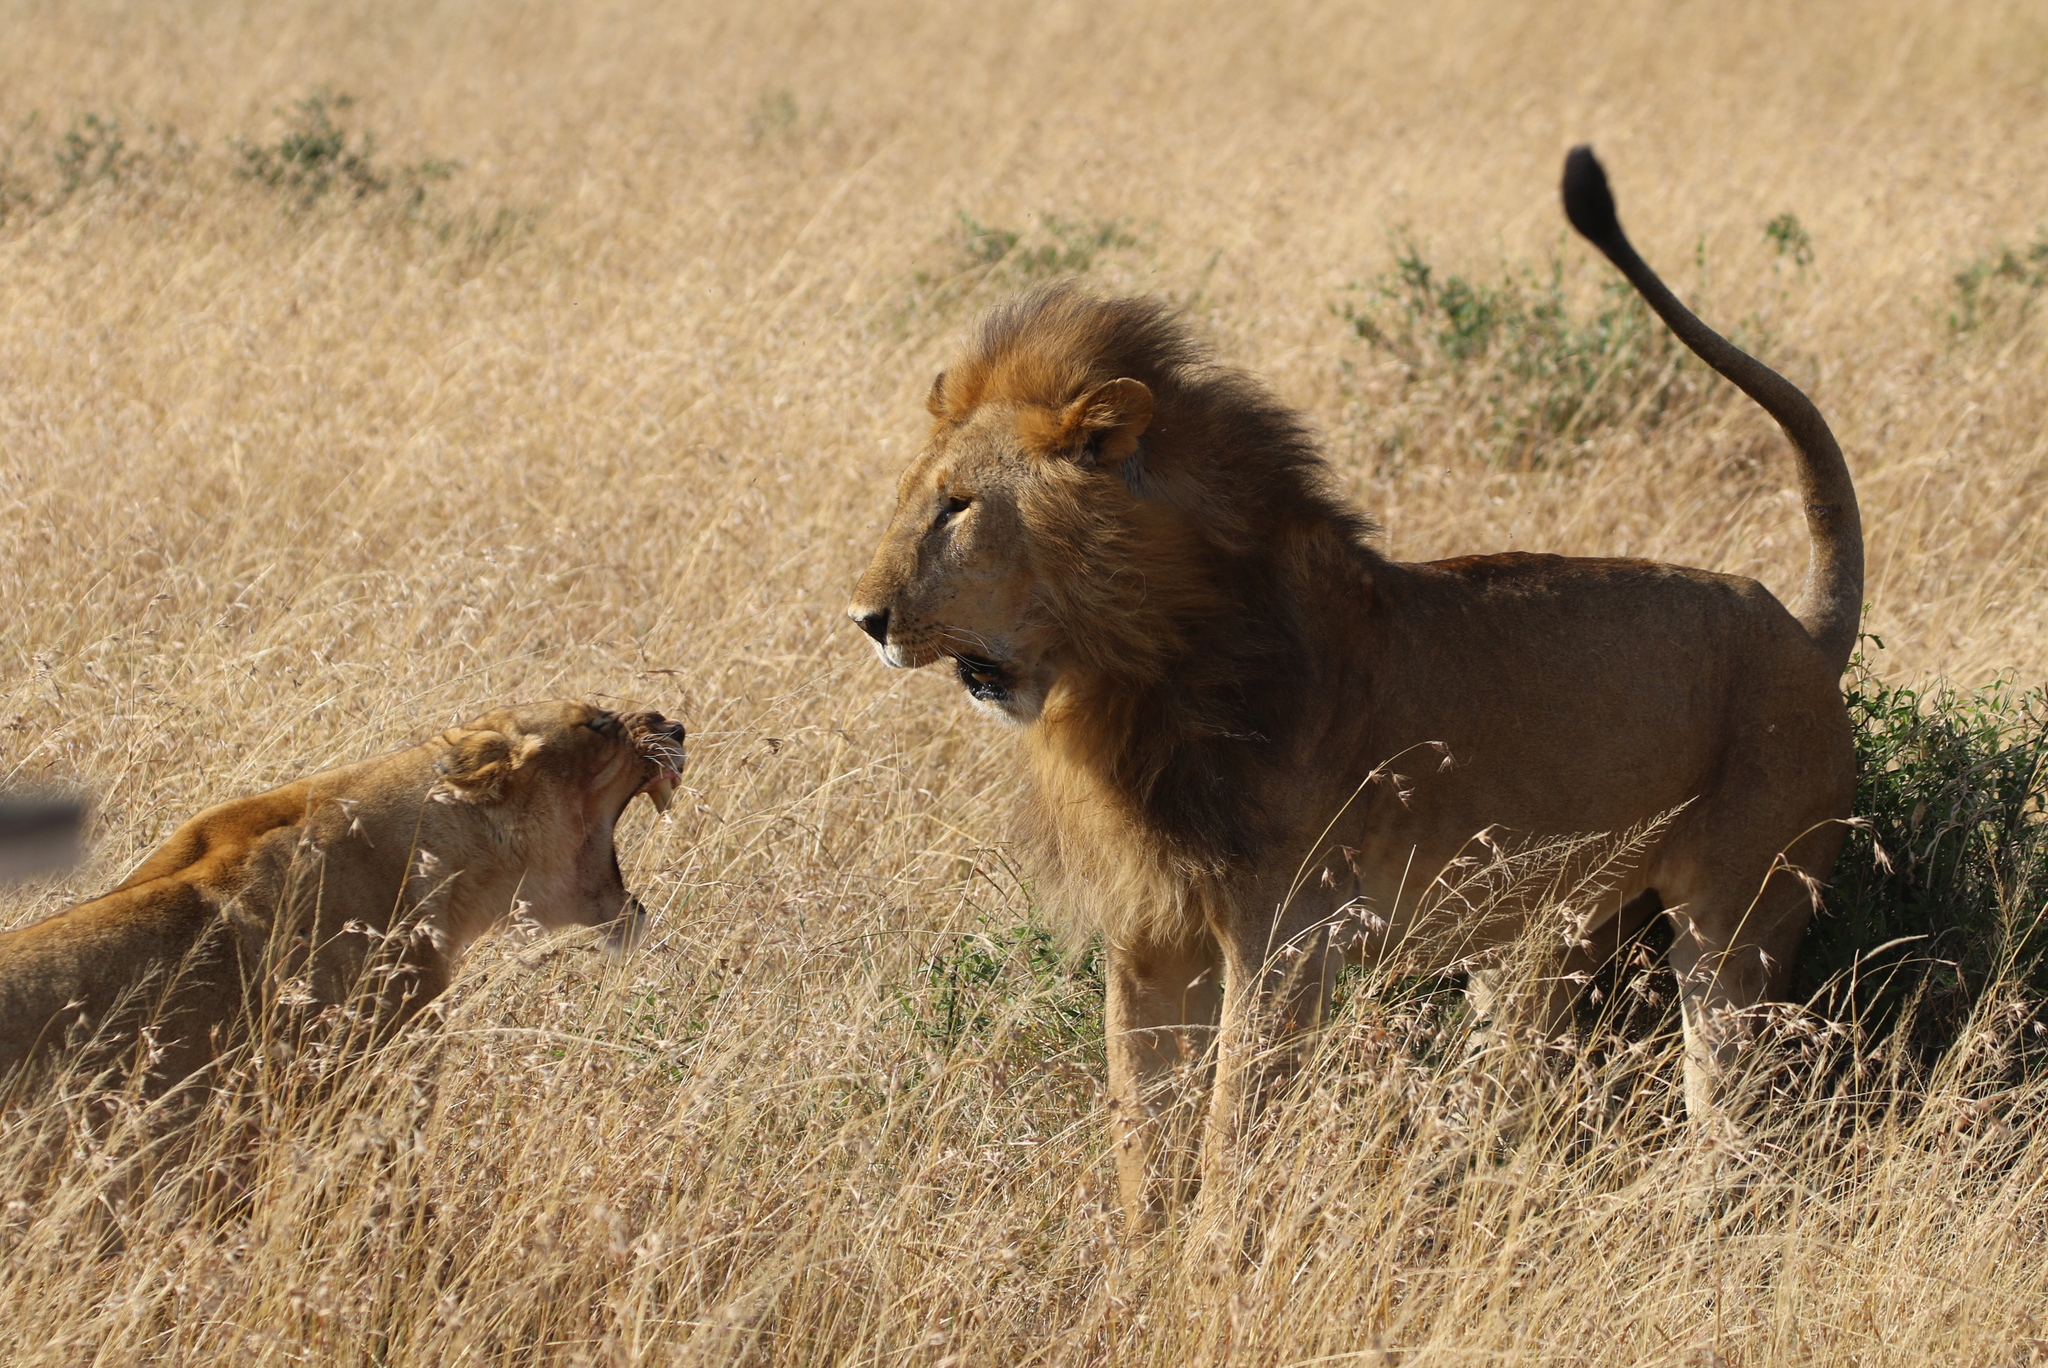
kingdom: Animalia
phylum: Chordata
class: Mammalia
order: Carnivora
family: Felidae
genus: Panthera
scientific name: Panthera leo
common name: Lion
